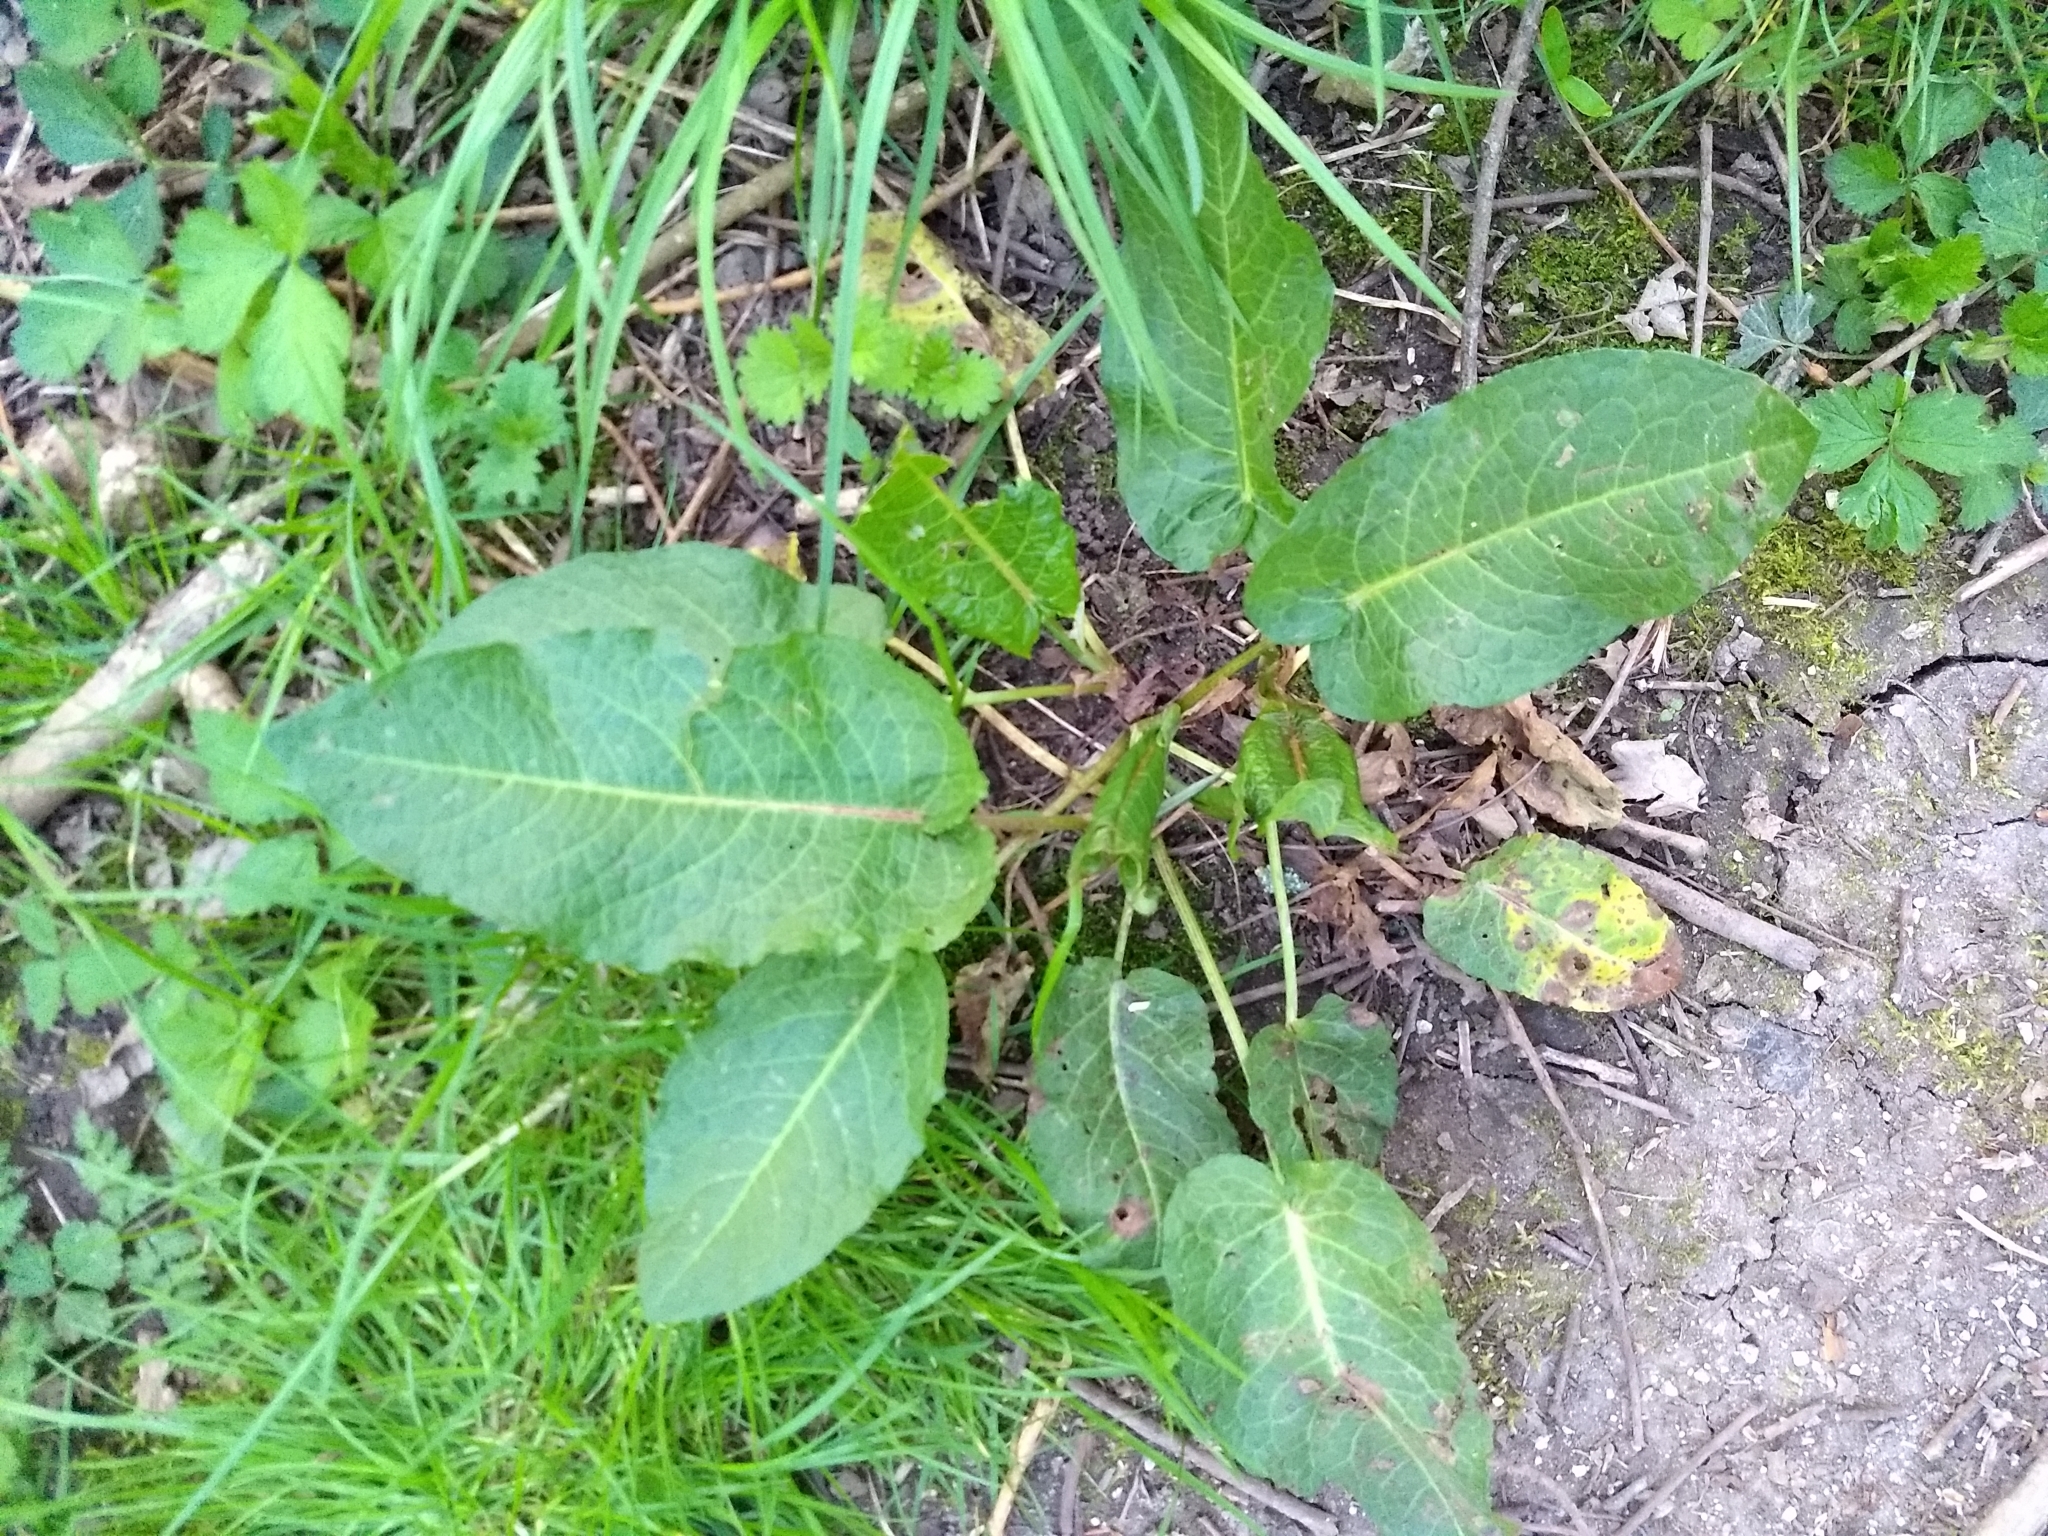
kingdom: Plantae
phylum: Tracheophyta
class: Magnoliopsida
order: Caryophyllales
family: Polygonaceae
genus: Rumex
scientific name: Rumex obtusifolius
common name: Bitter dock
